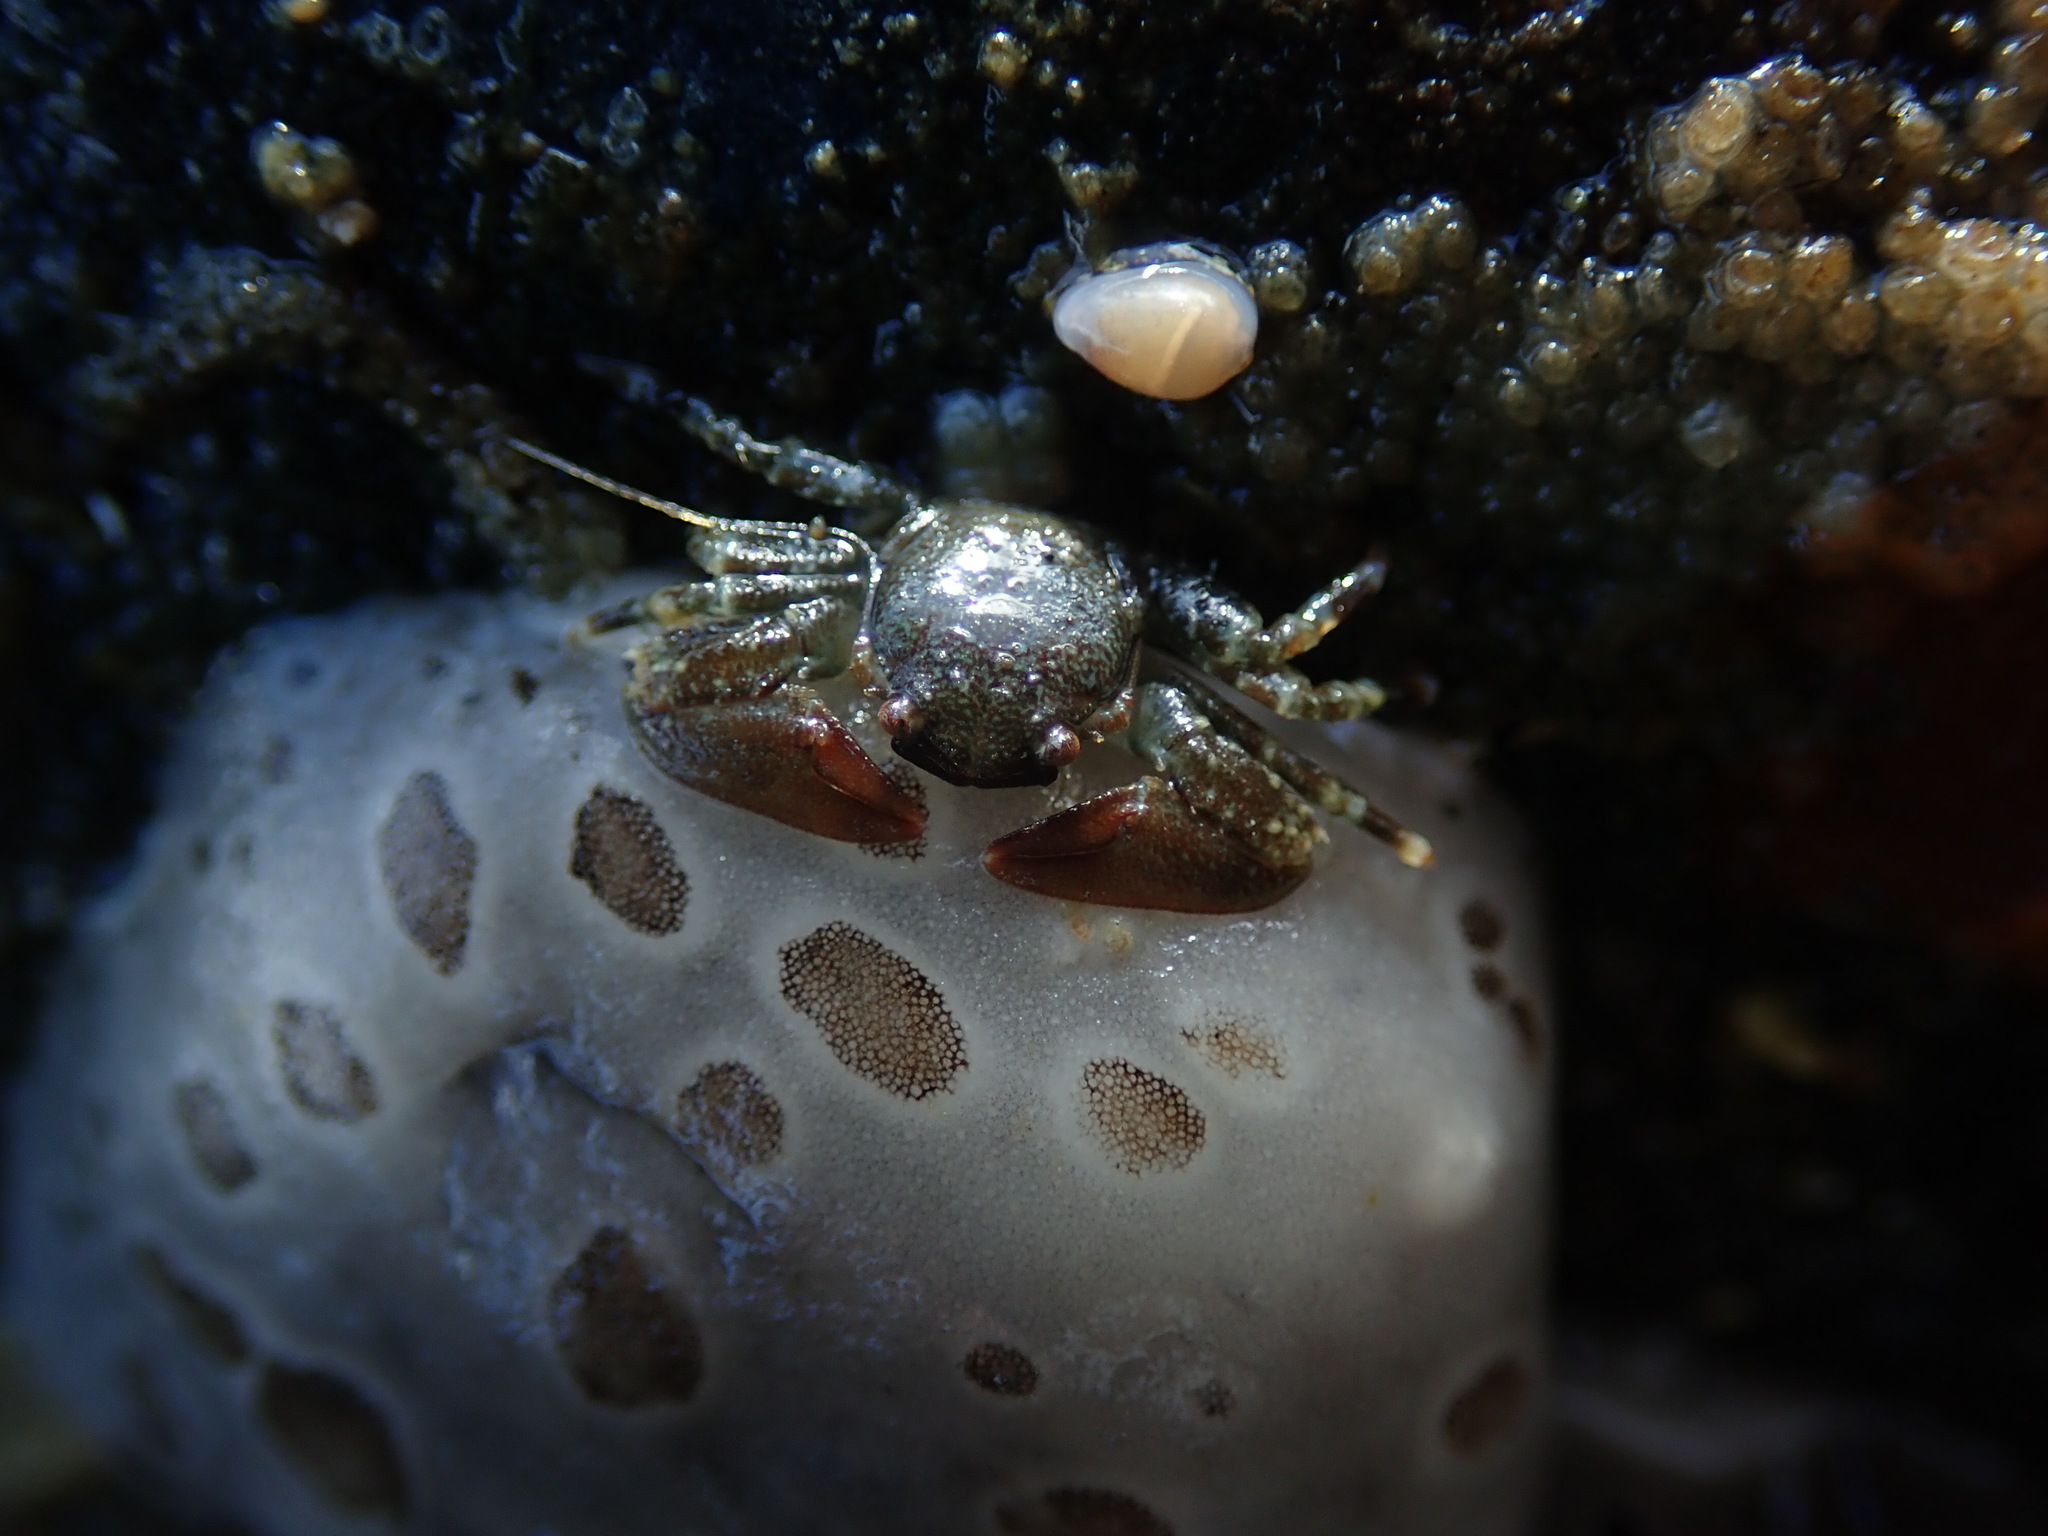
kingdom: Animalia
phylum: Arthropoda
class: Malacostraca
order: Decapoda
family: Porcellanidae
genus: Petrolisthes
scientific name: Petrolisthes eriomerus
